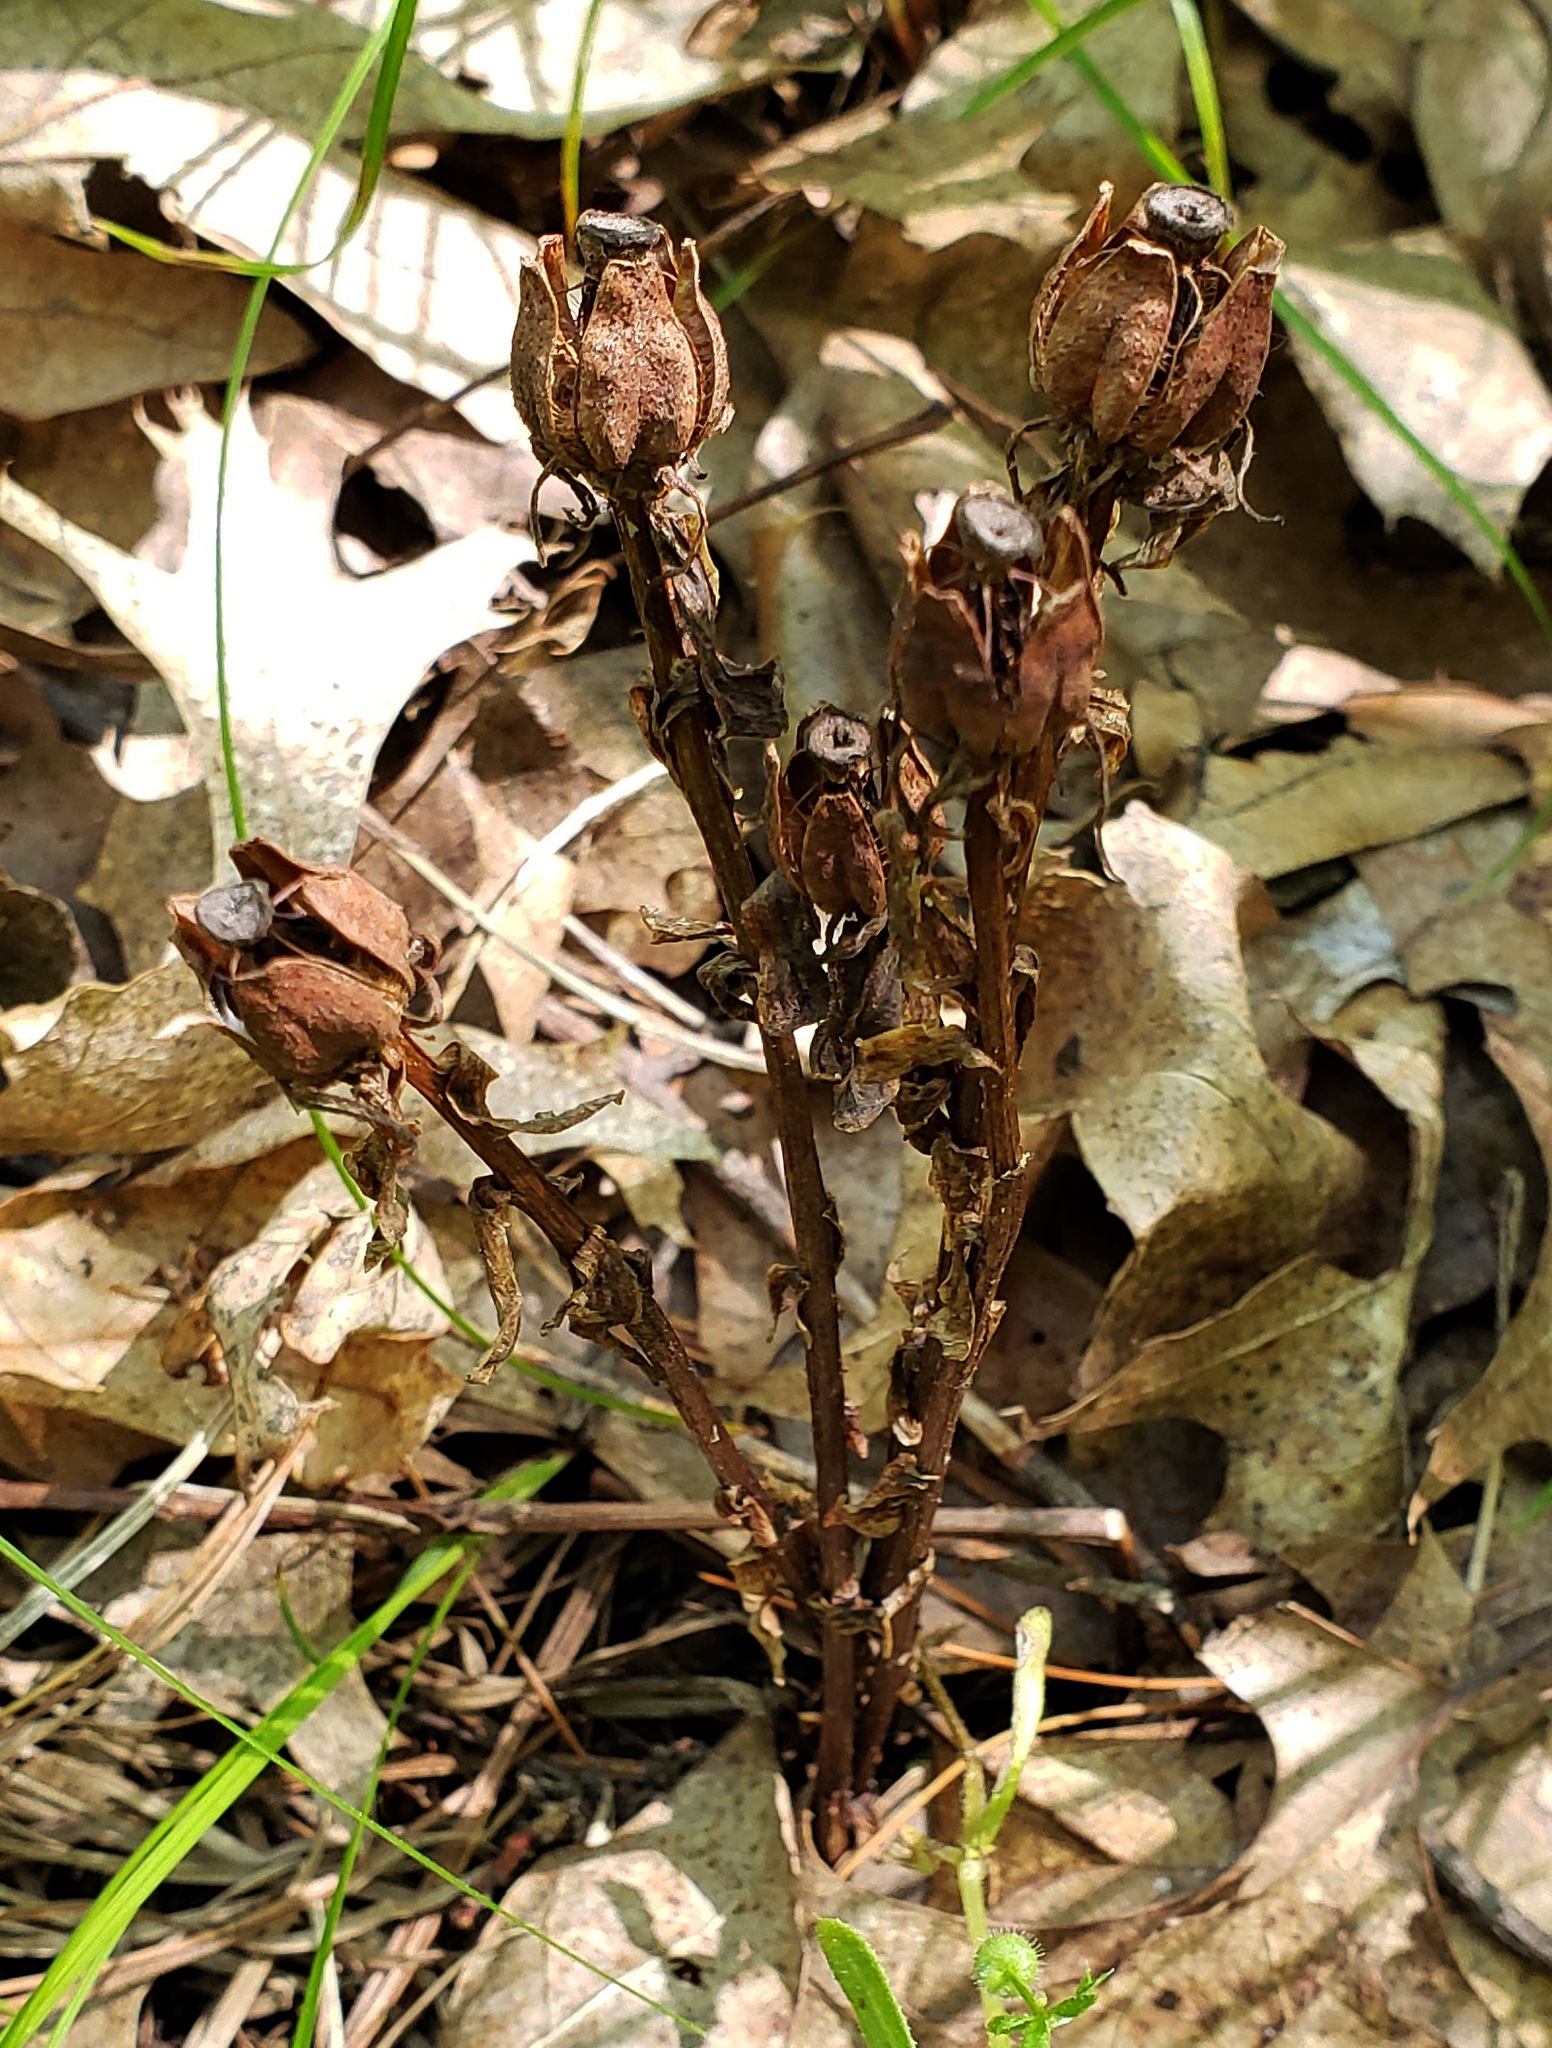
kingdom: Plantae
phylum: Tracheophyta
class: Magnoliopsida
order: Ericales
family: Ericaceae
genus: Monotropa
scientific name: Monotropa uniflora
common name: Convulsion root
